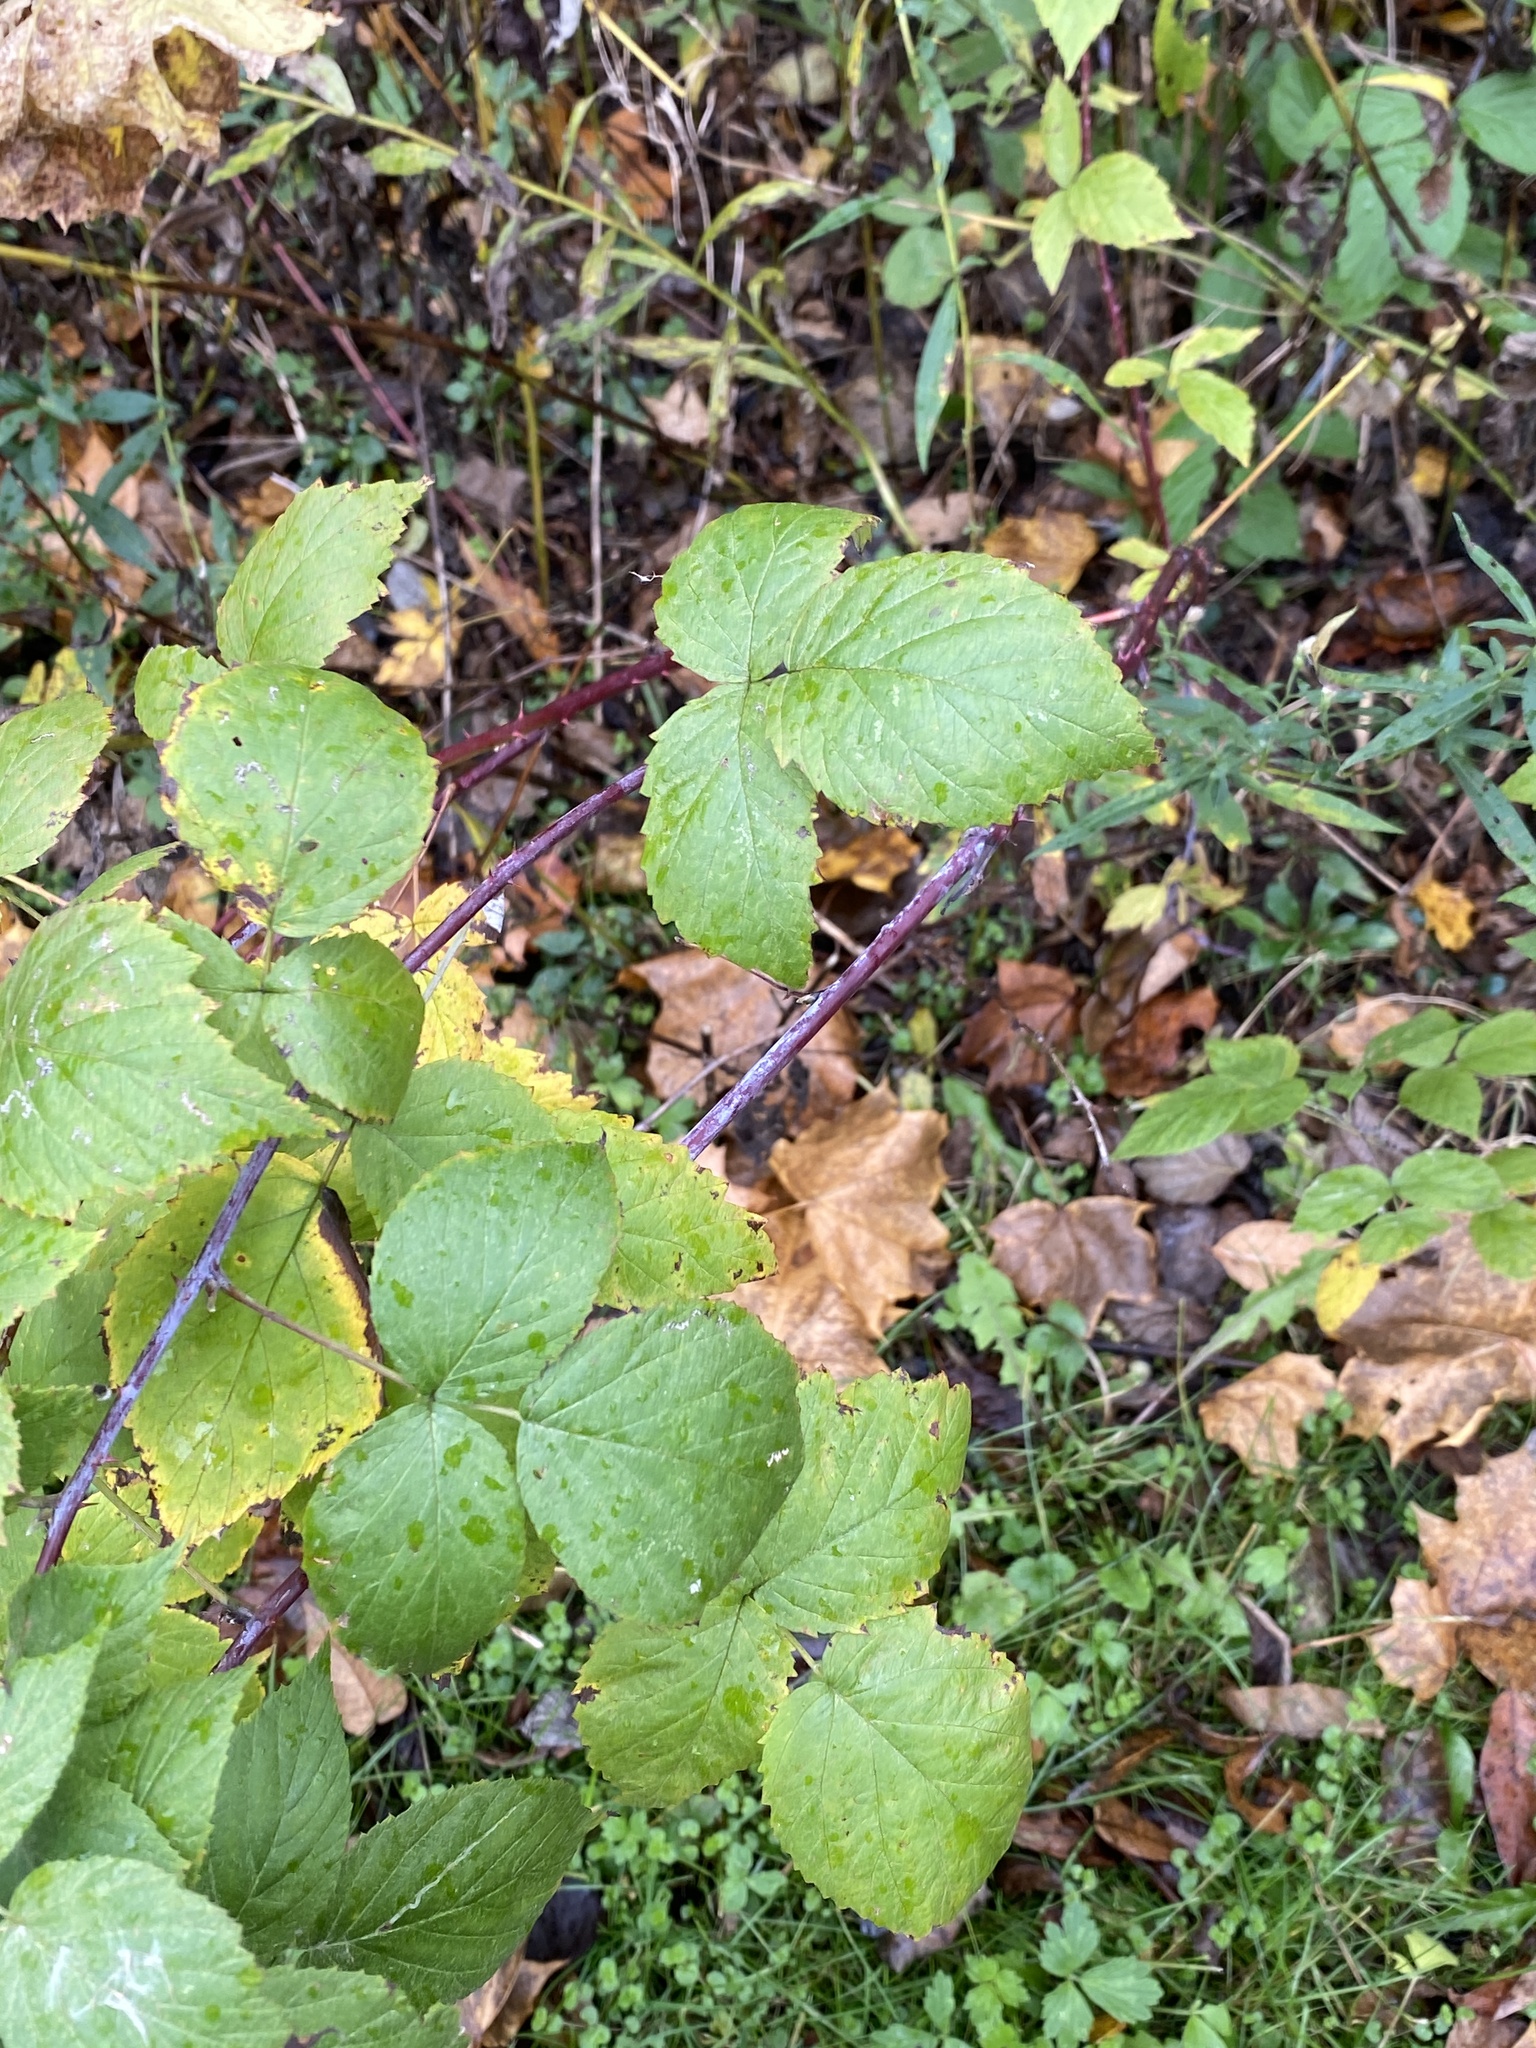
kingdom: Plantae
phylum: Tracheophyta
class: Magnoliopsida
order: Rosales
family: Rosaceae
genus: Rubus
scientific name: Rubus occidentalis
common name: Black raspberry
